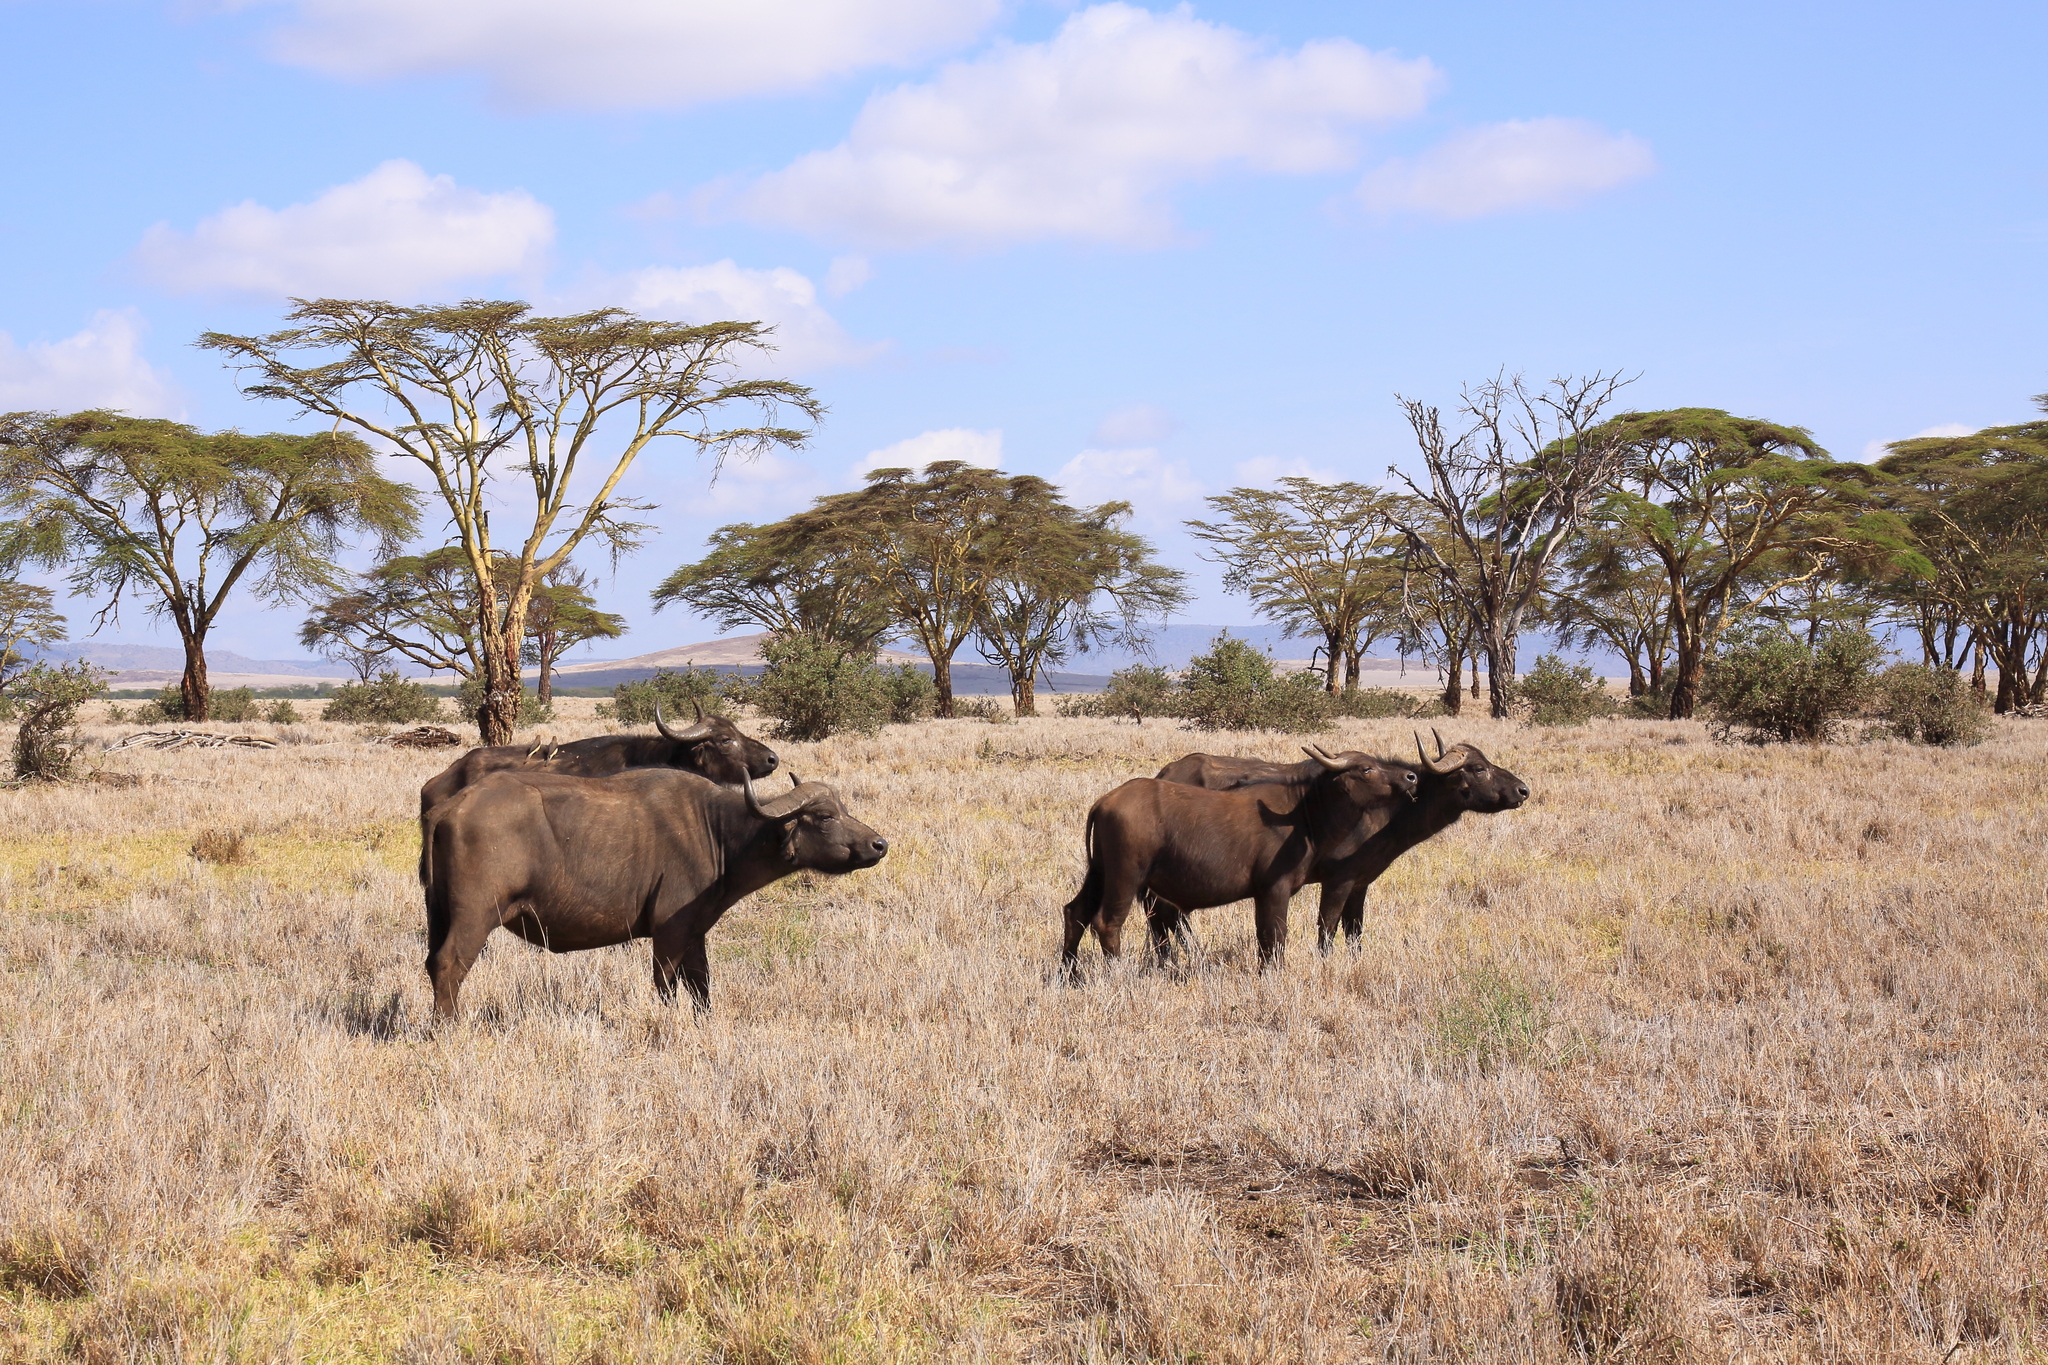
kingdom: Animalia
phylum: Chordata
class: Mammalia
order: Artiodactyla
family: Bovidae
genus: Syncerus
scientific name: Syncerus caffer
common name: African buffalo
